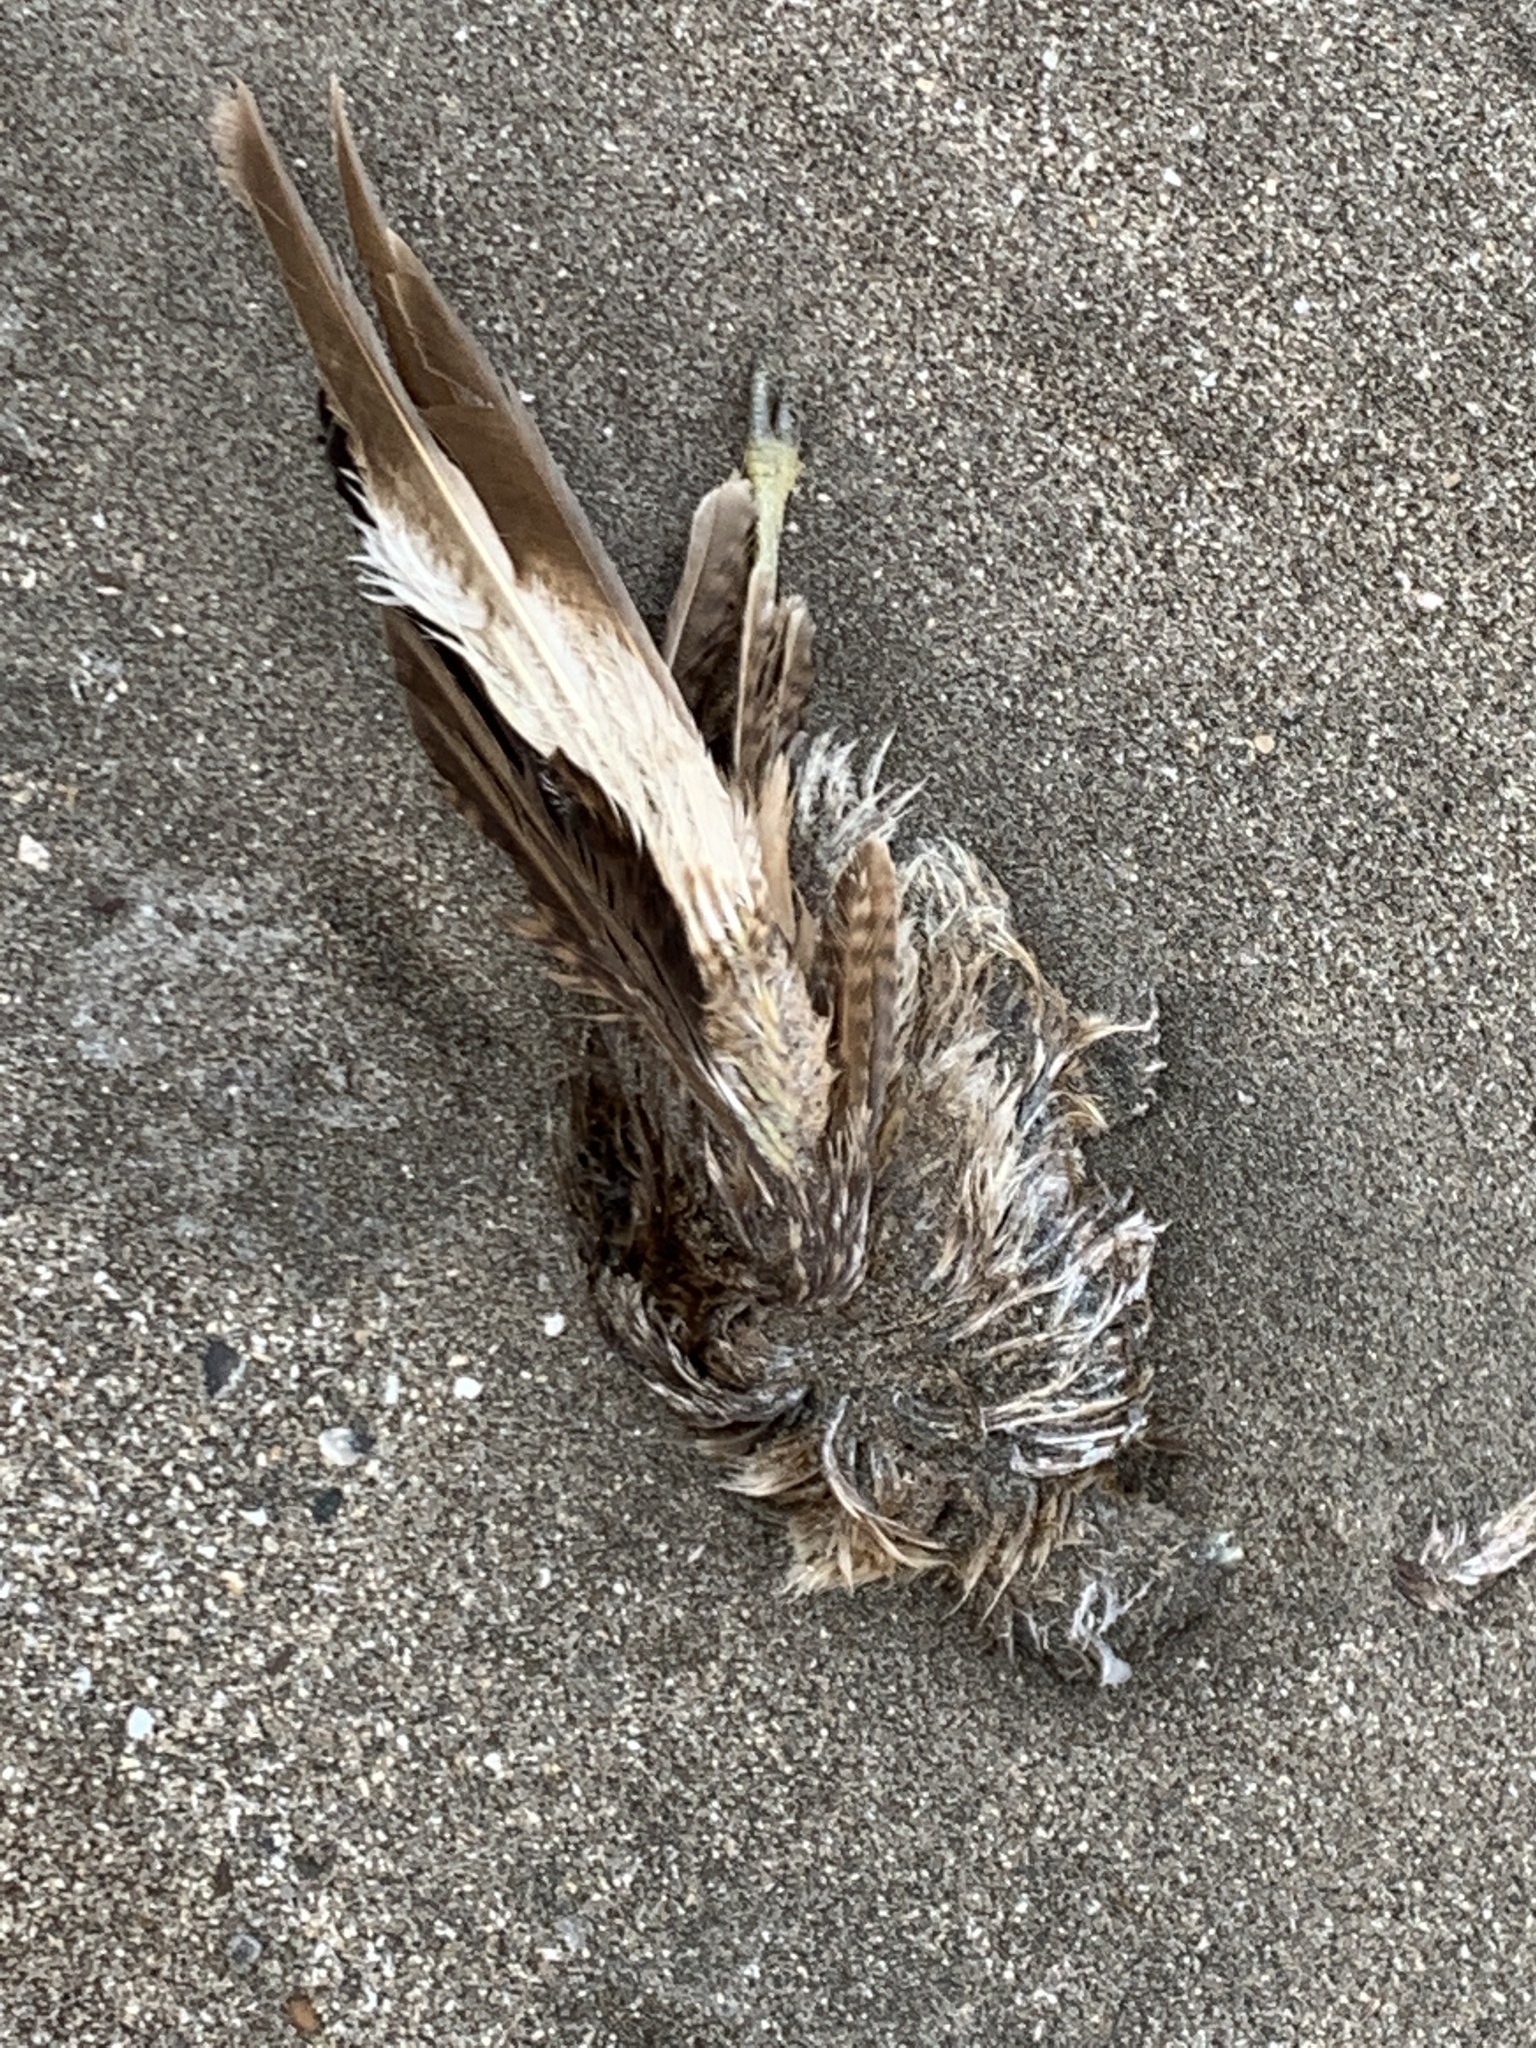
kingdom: Animalia
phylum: Chordata
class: Aves
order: Falconiformes
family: Falconidae
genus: Daptrius
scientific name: Daptrius
